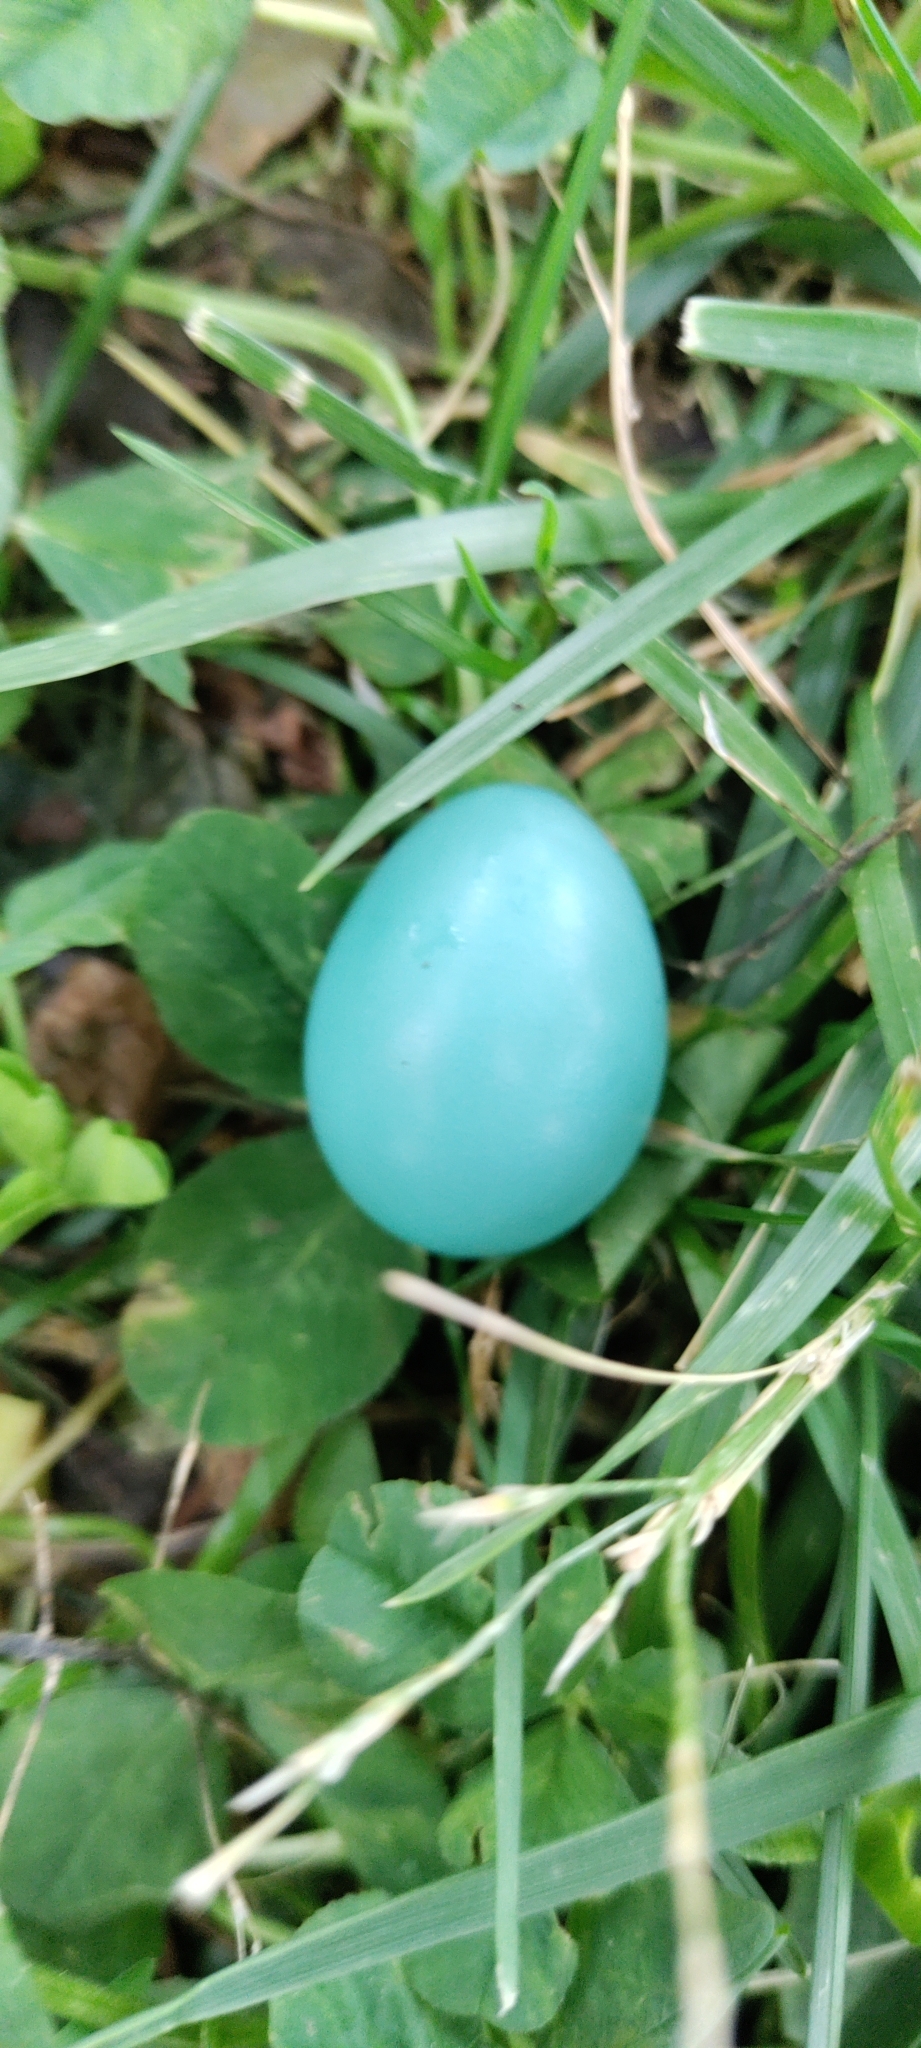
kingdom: Animalia
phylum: Chordata
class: Aves
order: Passeriformes
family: Turdidae
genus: Turdus
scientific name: Turdus migratorius
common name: American robin
